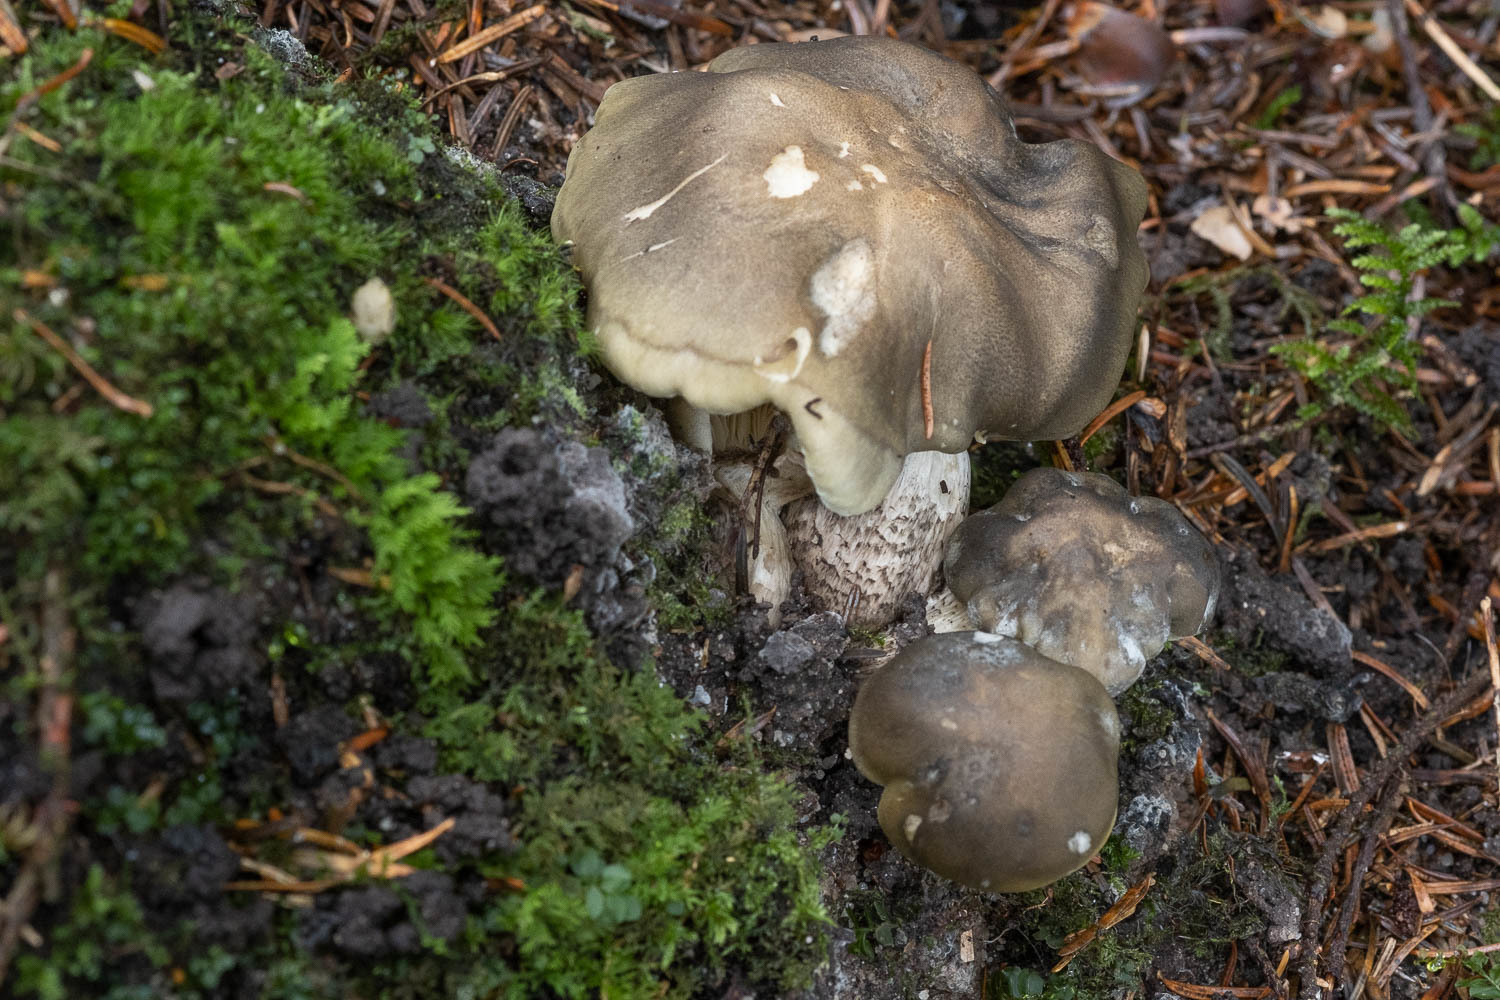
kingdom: Fungi
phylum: Basidiomycota
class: Agaricomycetes
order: Agaricales
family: Tricholomataceae
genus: Tricholoma
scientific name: Tricholoma saponaceum
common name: Soapy trich
